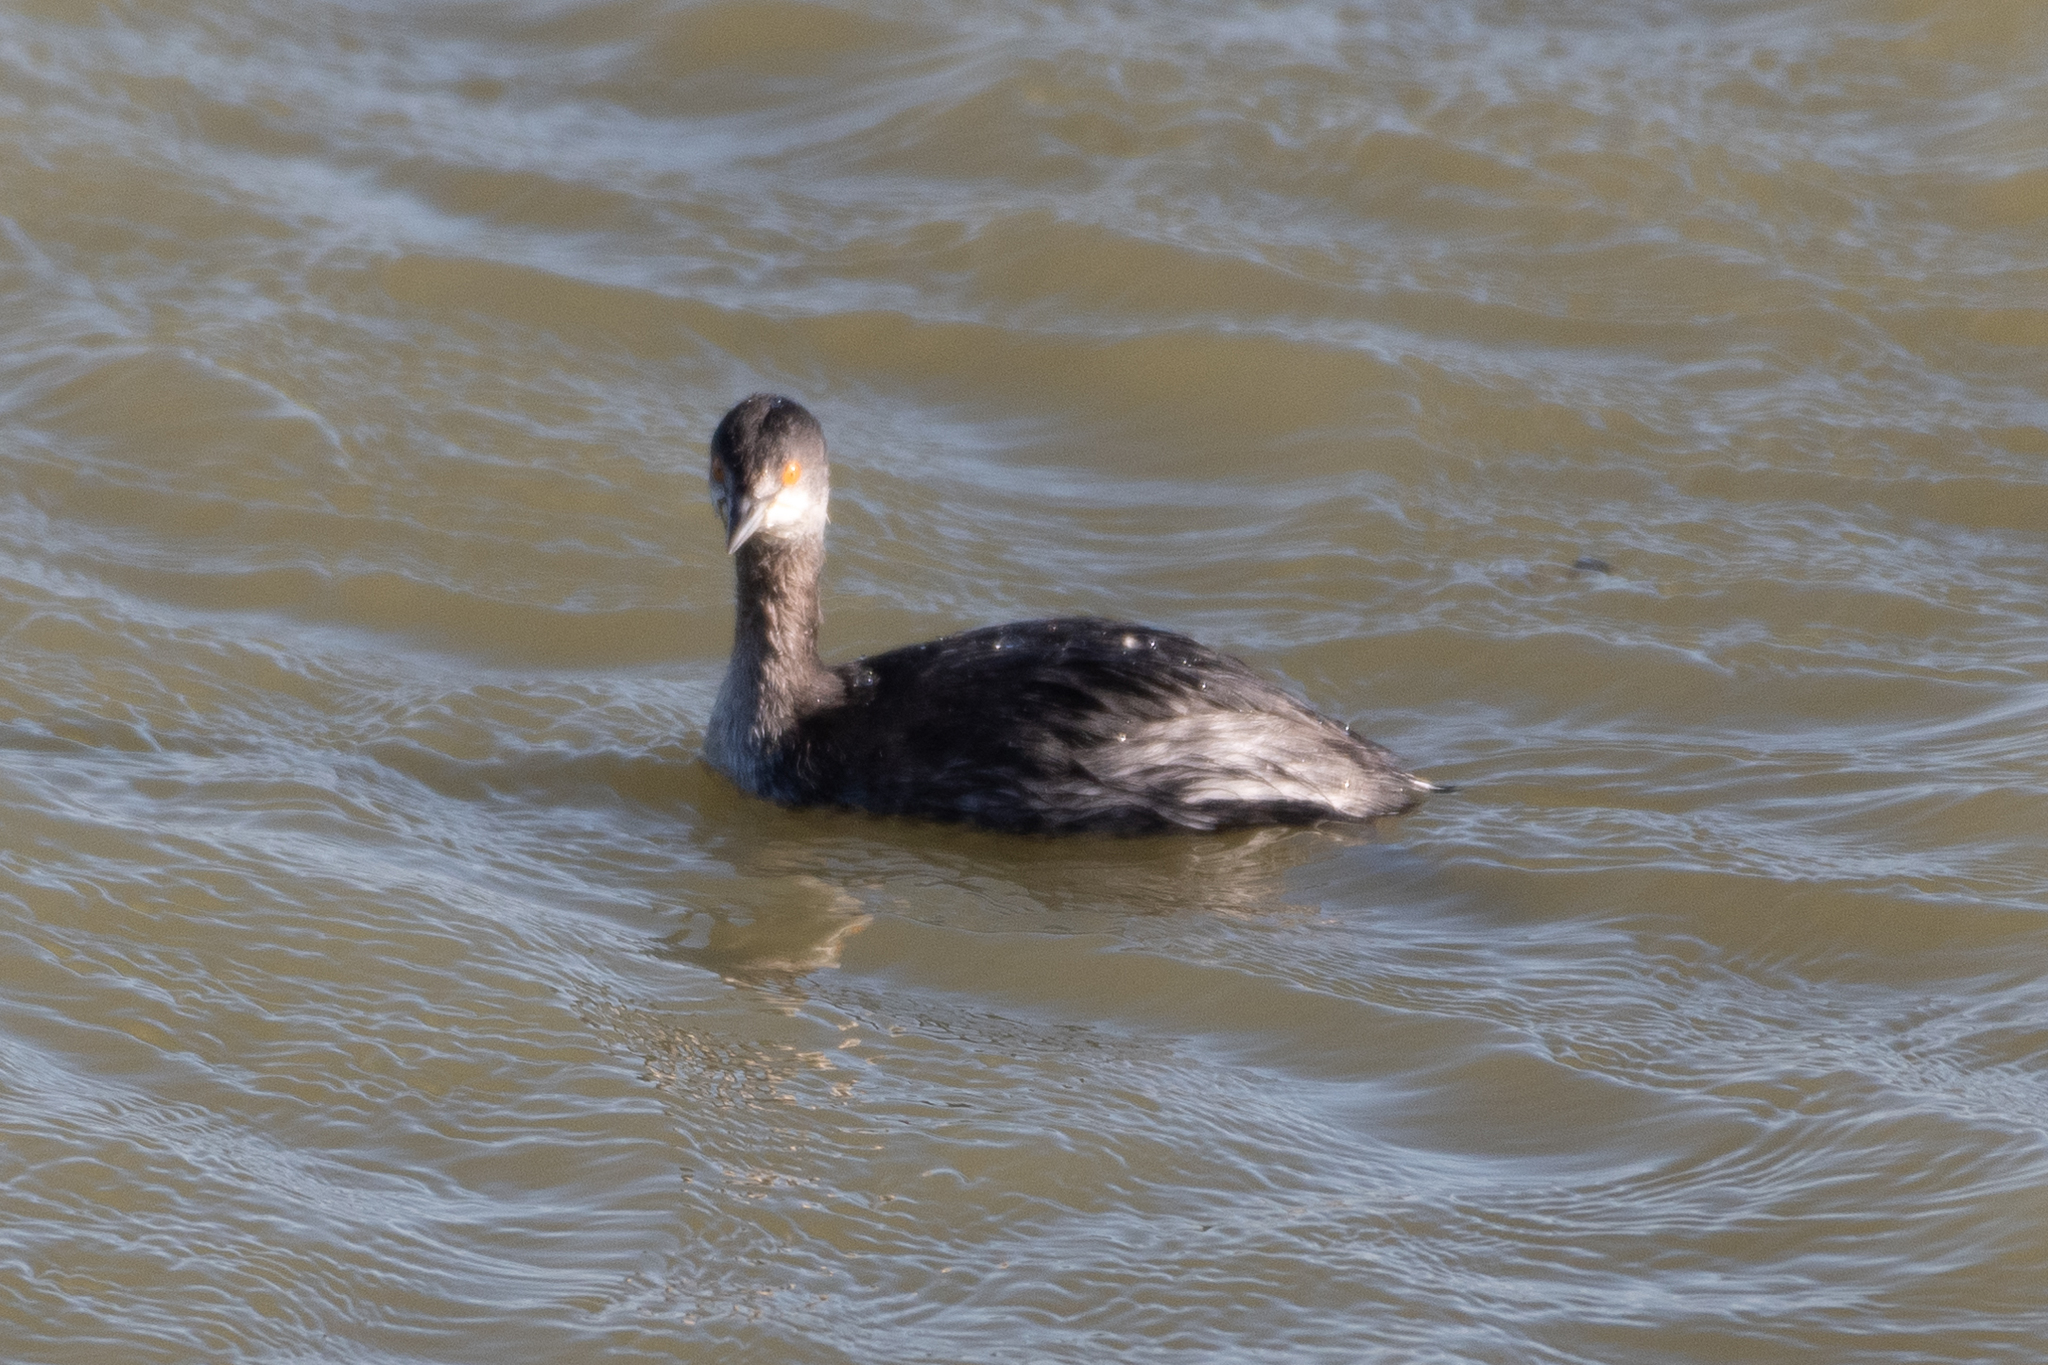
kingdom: Animalia
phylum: Chordata
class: Aves
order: Podicipediformes
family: Podicipedidae
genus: Podiceps
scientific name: Podiceps nigricollis
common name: Black-necked grebe
